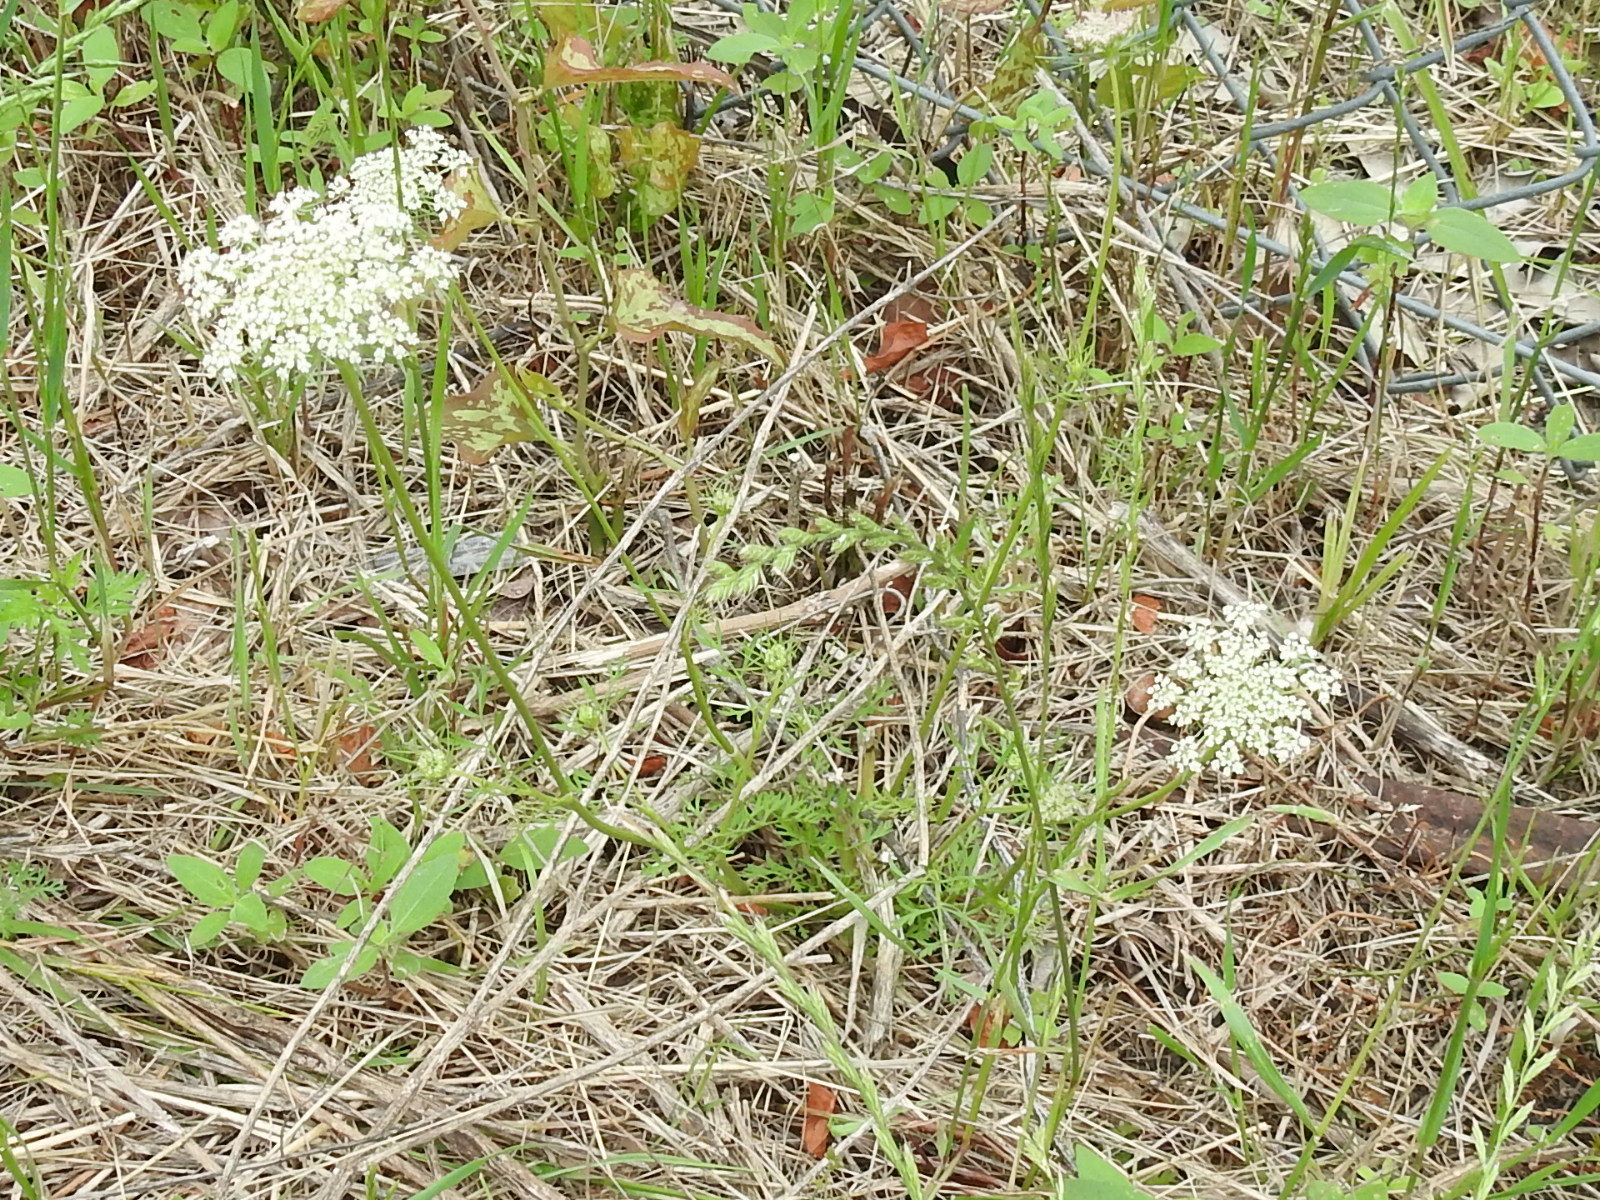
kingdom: Plantae
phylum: Tracheophyta
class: Magnoliopsida
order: Apiales
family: Apiaceae
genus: Daucus
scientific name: Daucus carota
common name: Wild carrot
